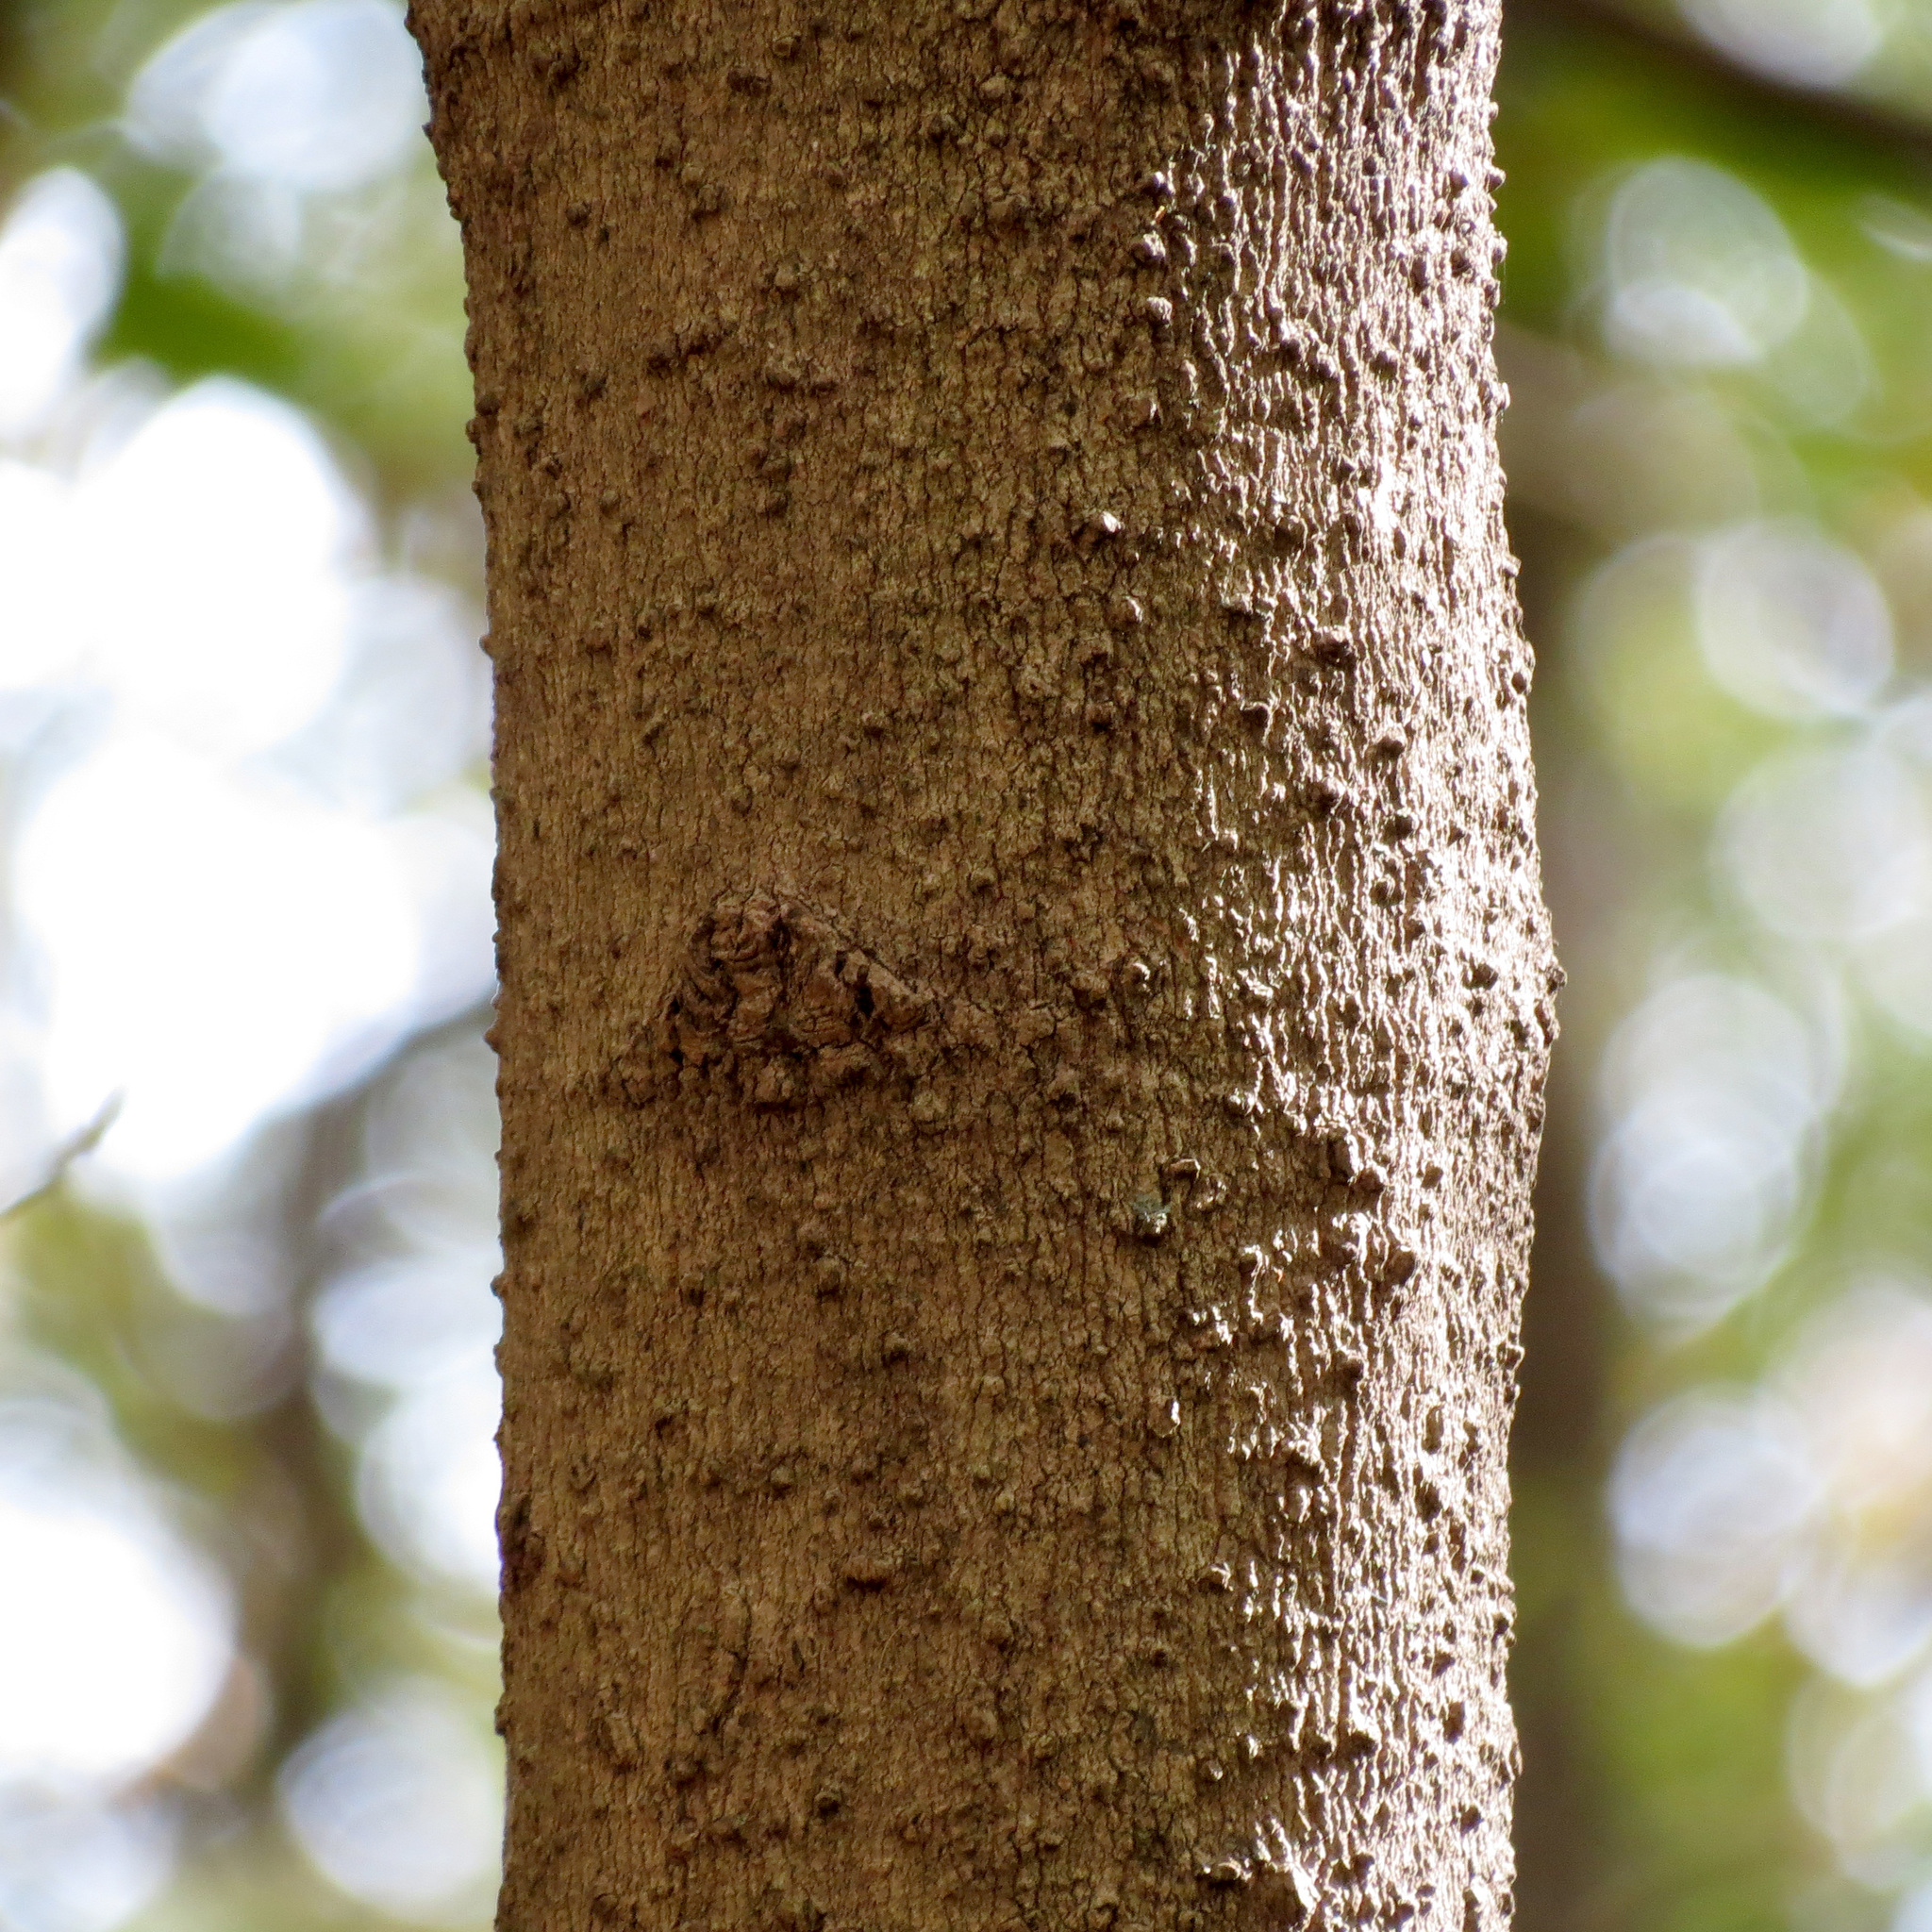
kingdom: Plantae
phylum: Tracheophyta
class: Magnoliopsida
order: Sapindales
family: Sapindaceae
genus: Acer
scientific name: Acer saccharum
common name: Sugar maple
